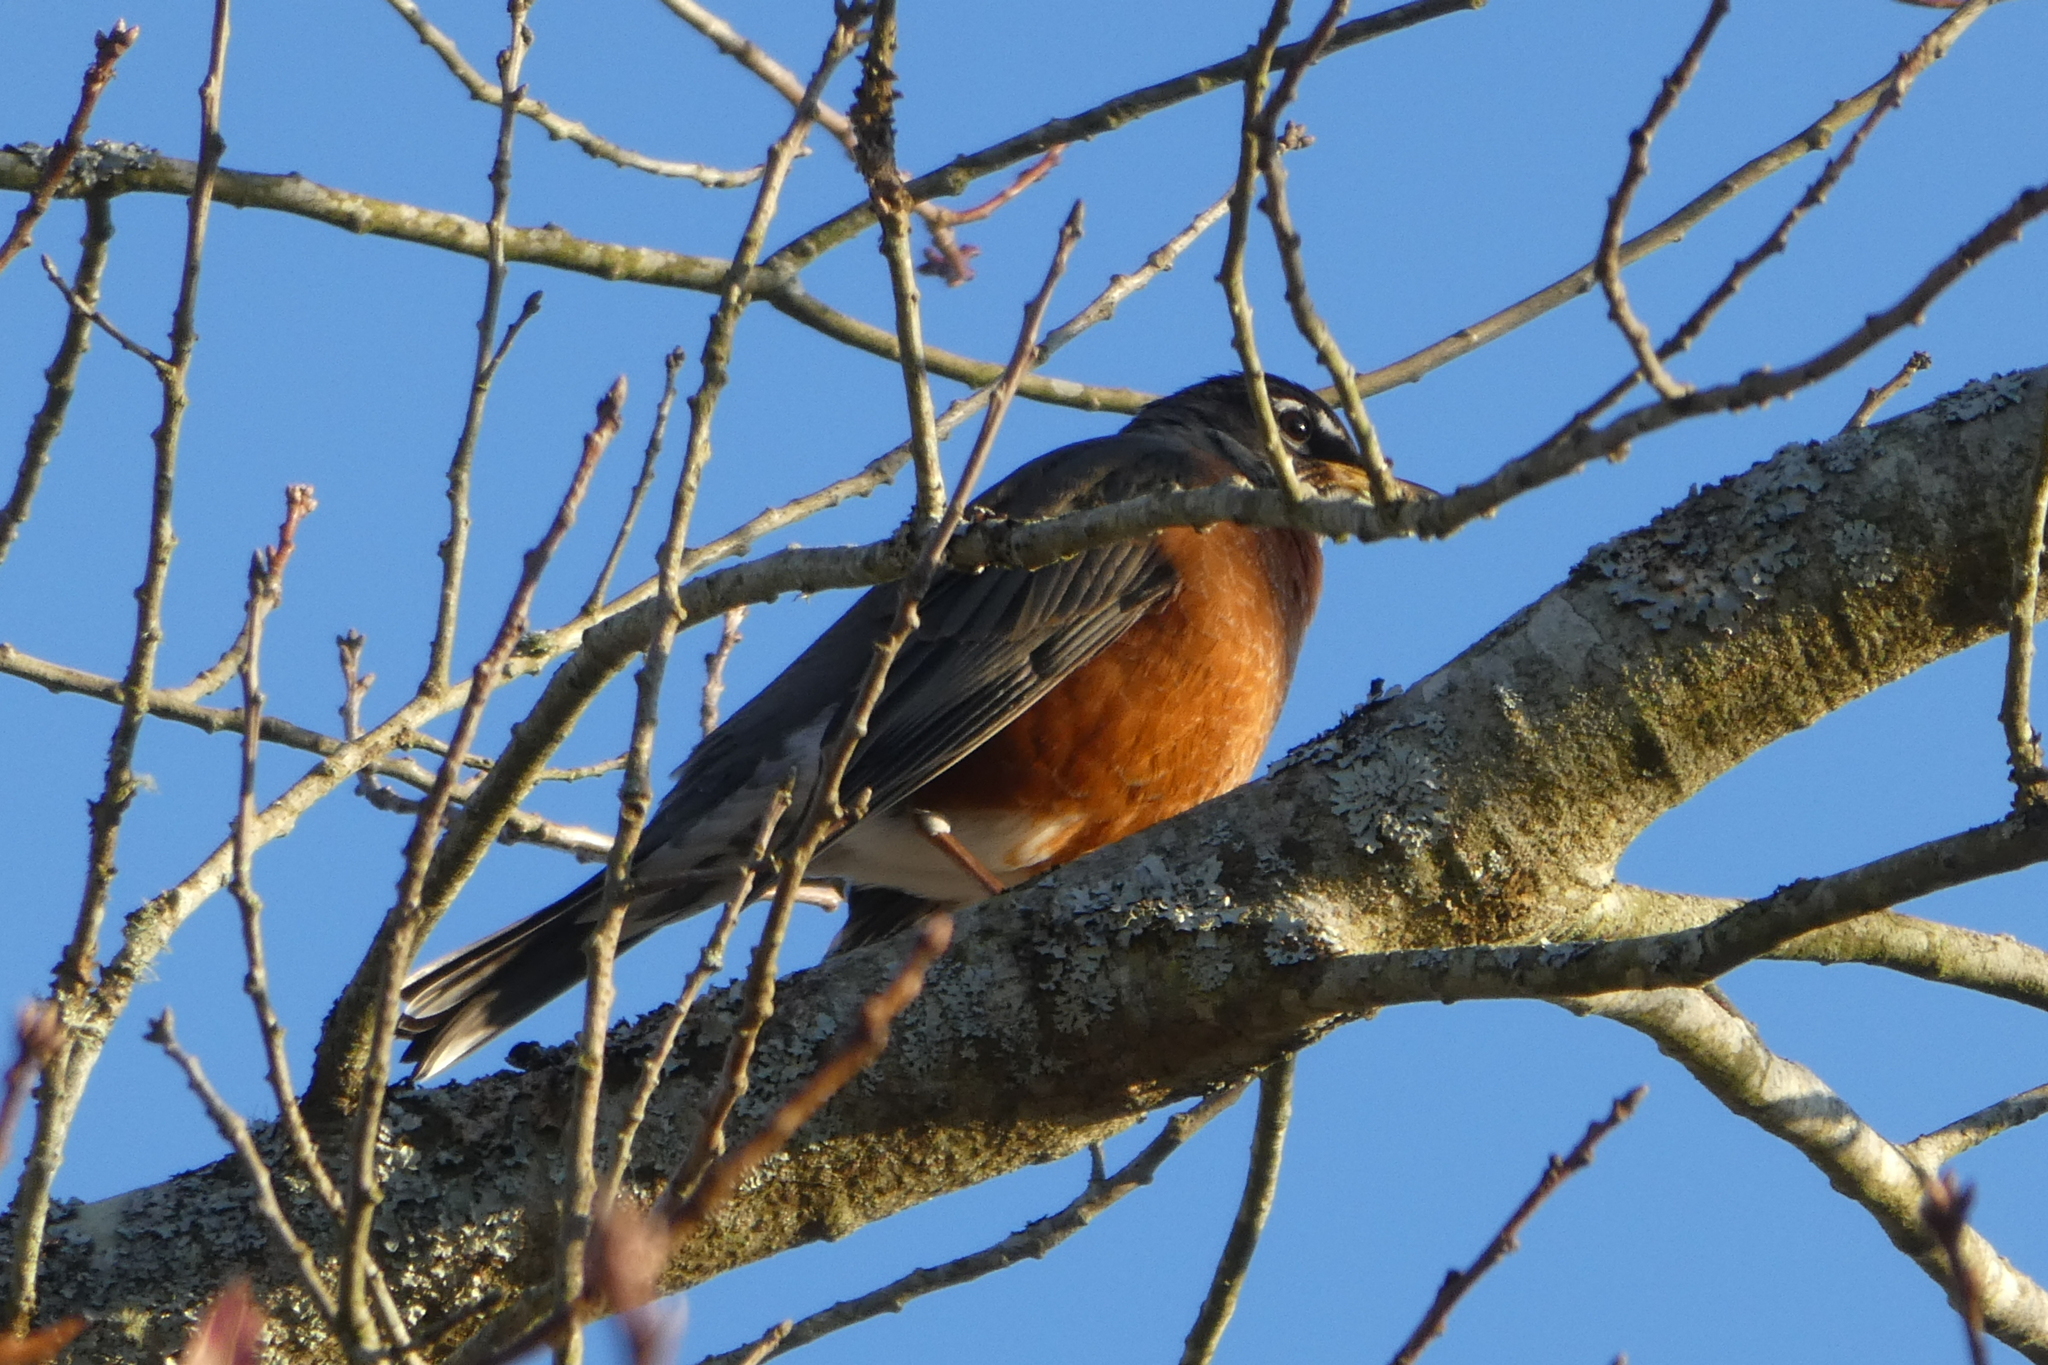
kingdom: Animalia
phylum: Chordata
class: Aves
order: Passeriformes
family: Turdidae
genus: Turdus
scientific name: Turdus migratorius
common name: American robin
